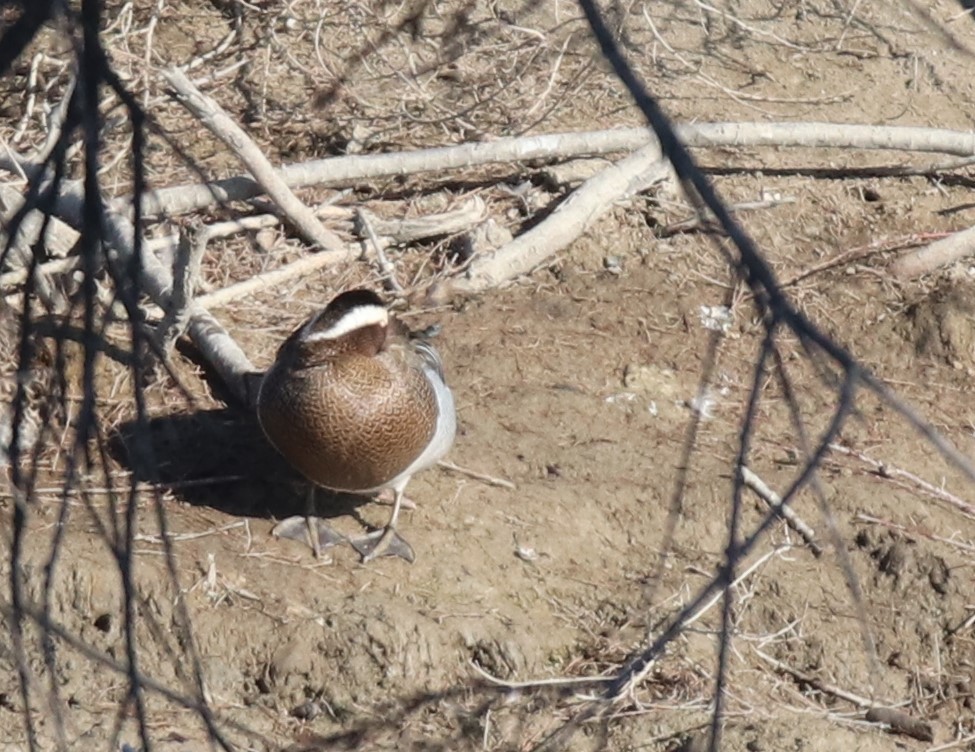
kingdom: Animalia
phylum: Chordata
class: Aves
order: Anseriformes
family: Anatidae
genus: Spatula
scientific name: Spatula querquedula
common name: Garganey
